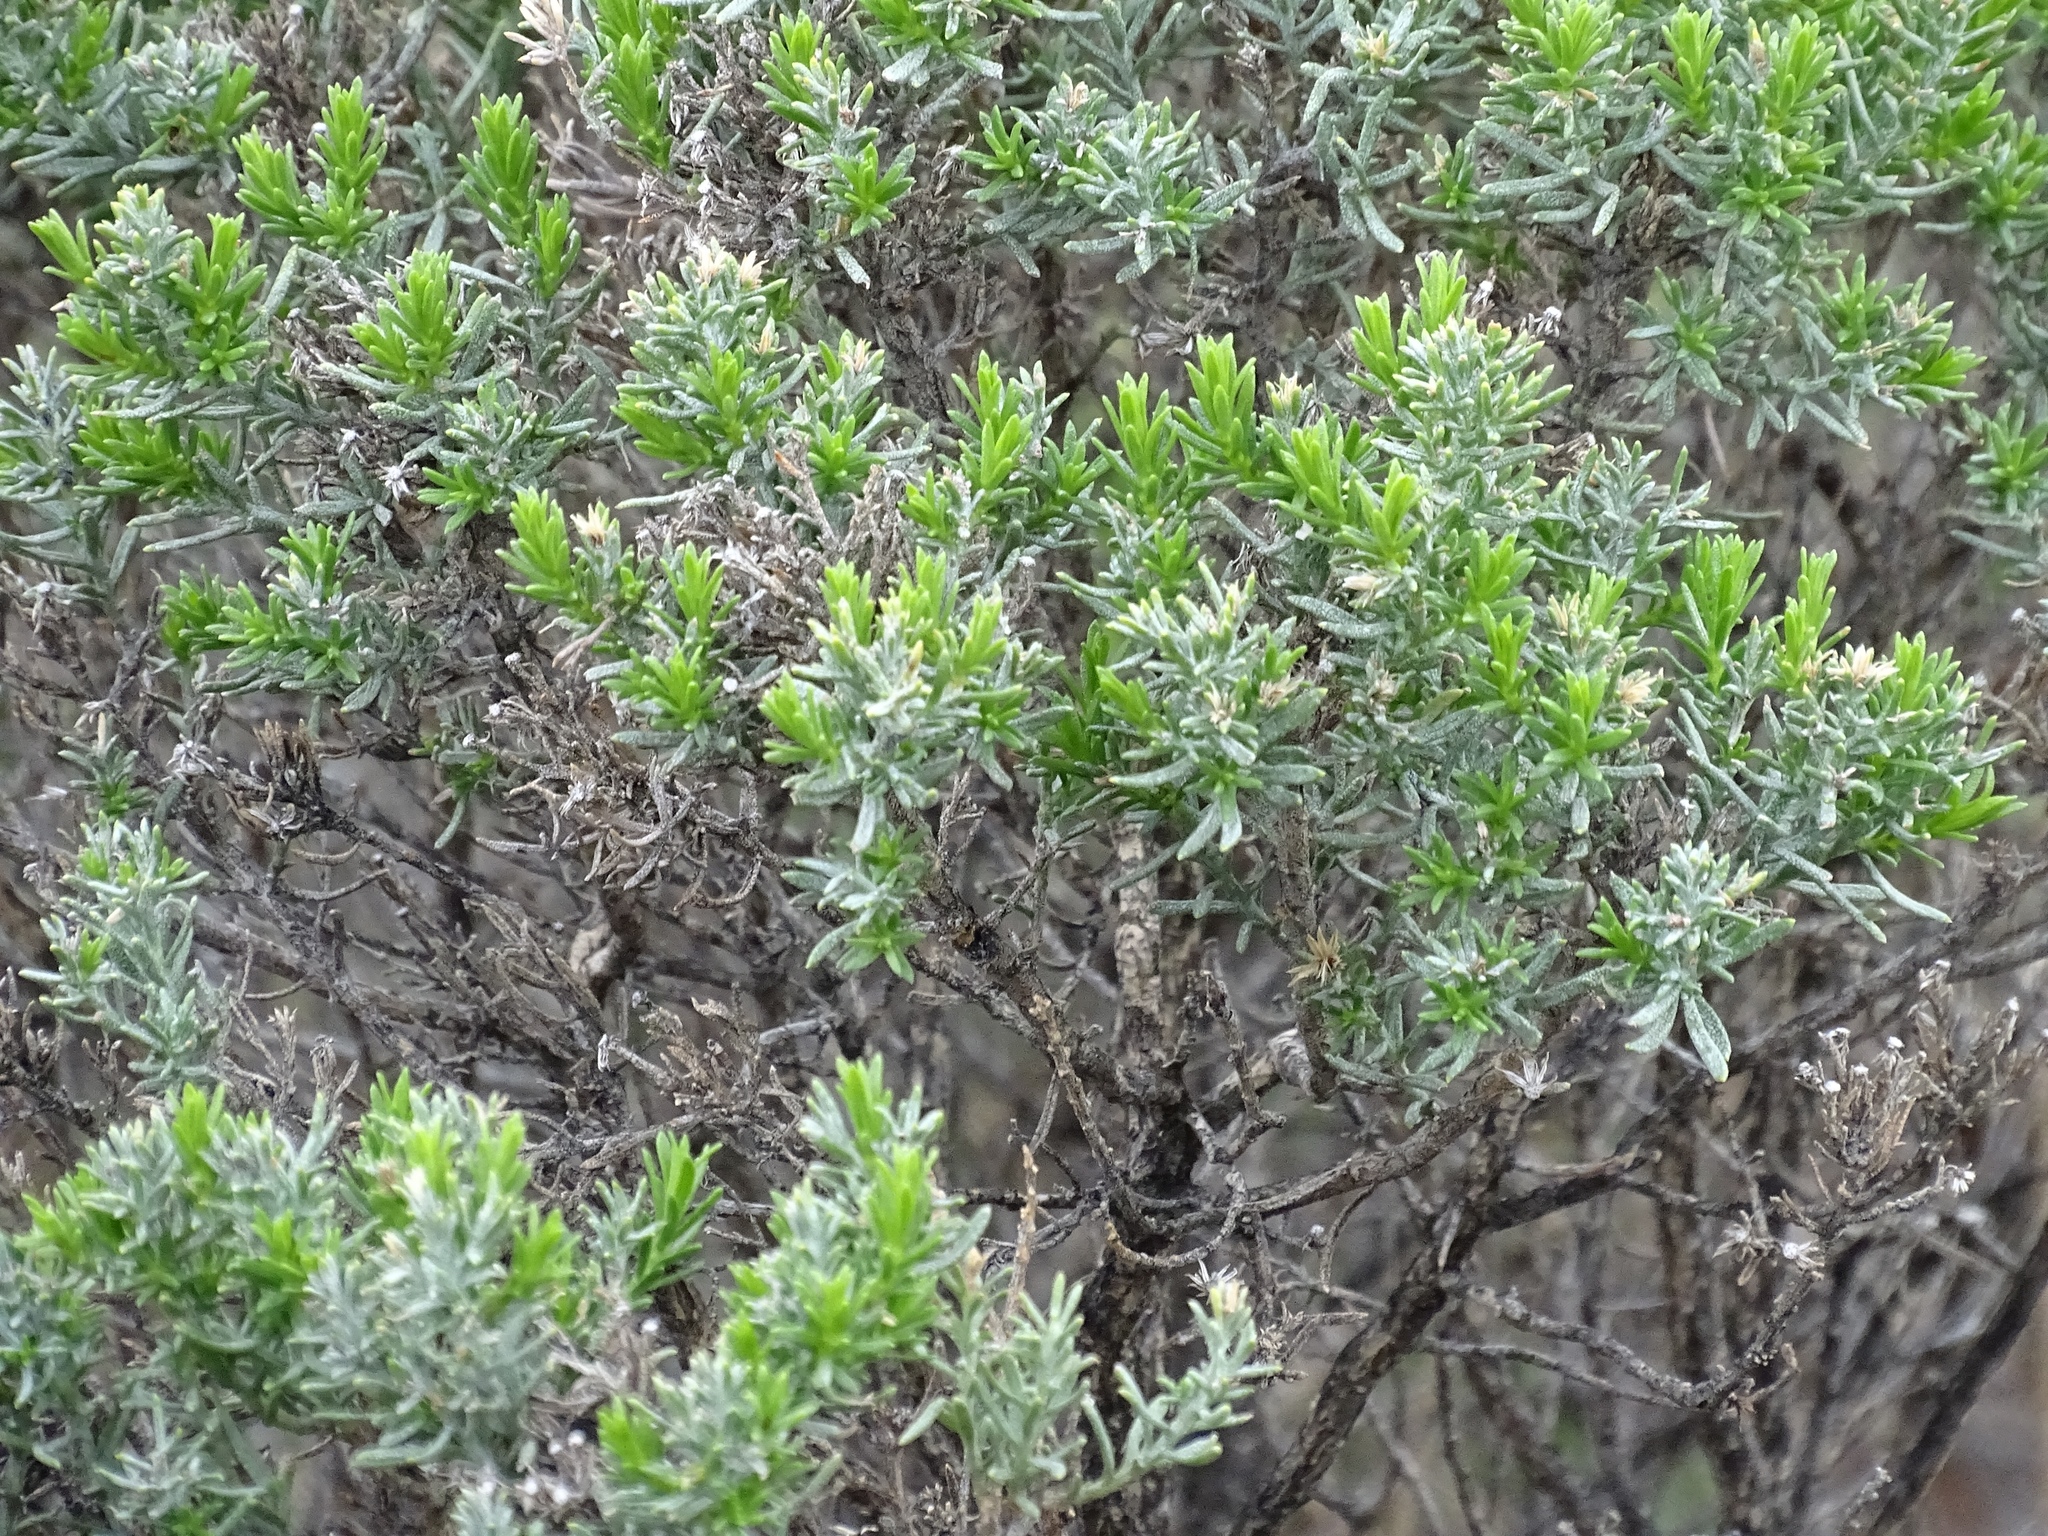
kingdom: Plantae
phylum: Tracheophyta
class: Magnoliopsida
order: Asterales
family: Asteraceae
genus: Ericameria
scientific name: Ericameria laricifolia
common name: Turpentine-bush
